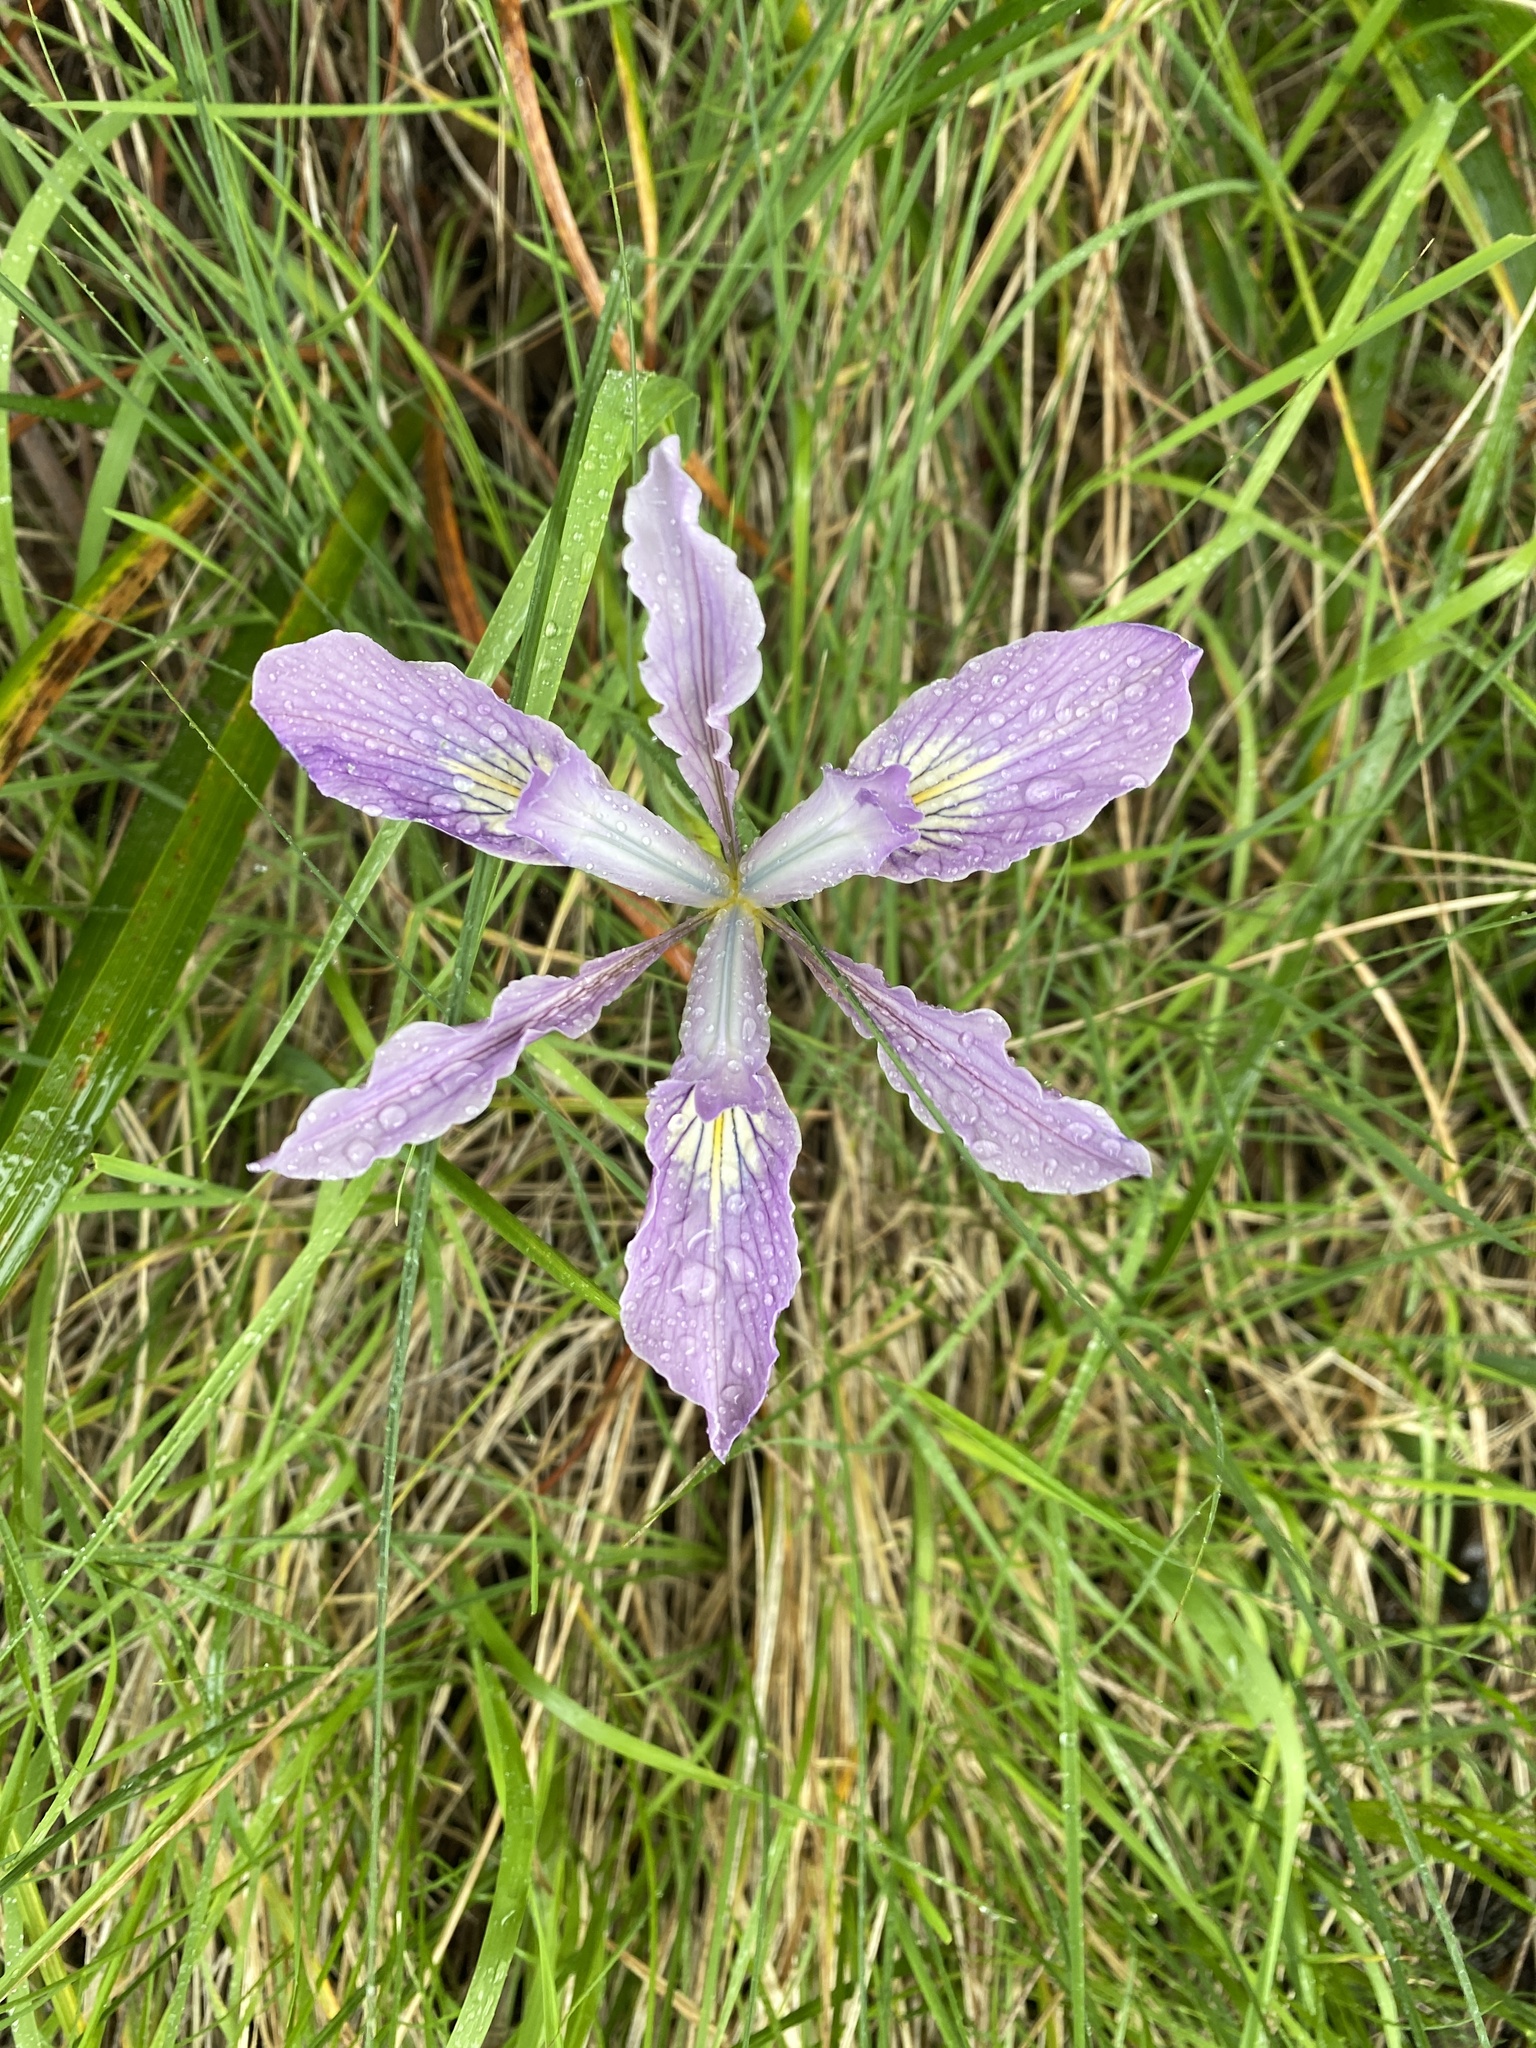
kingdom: Plantae
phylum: Tracheophyta
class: Liliopsida
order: Asparagales
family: Iridaceae
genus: Iris
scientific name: Iris douglasiana
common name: Marin iris
